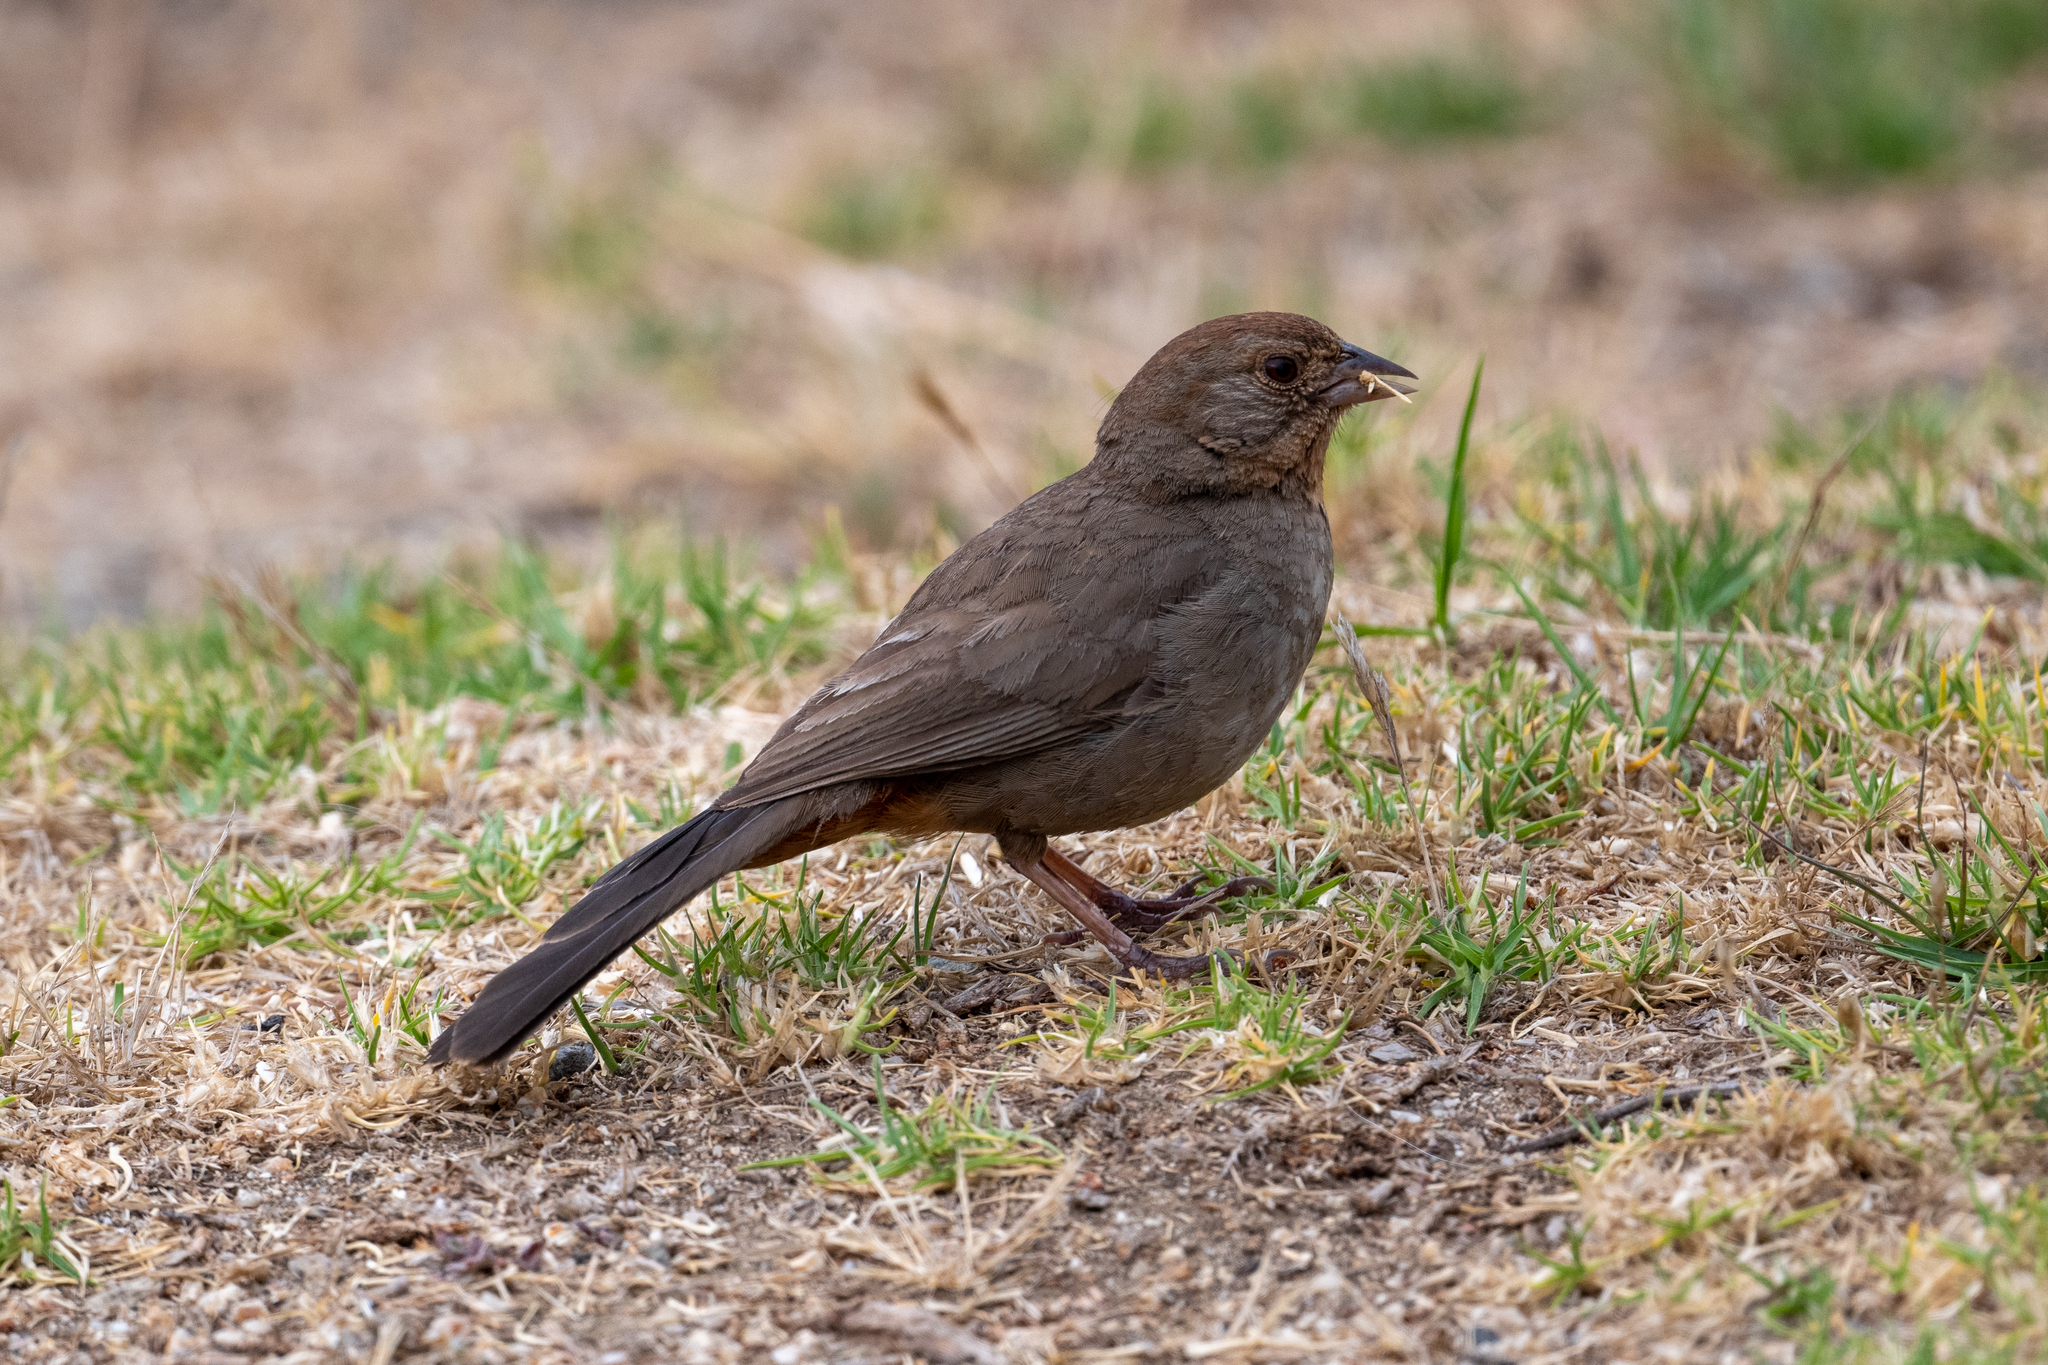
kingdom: Animalia
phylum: Chordata
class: Aves
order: Passeriformes
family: Passerellidae
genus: Melozone
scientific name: Melozone crissalis
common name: California towhee
